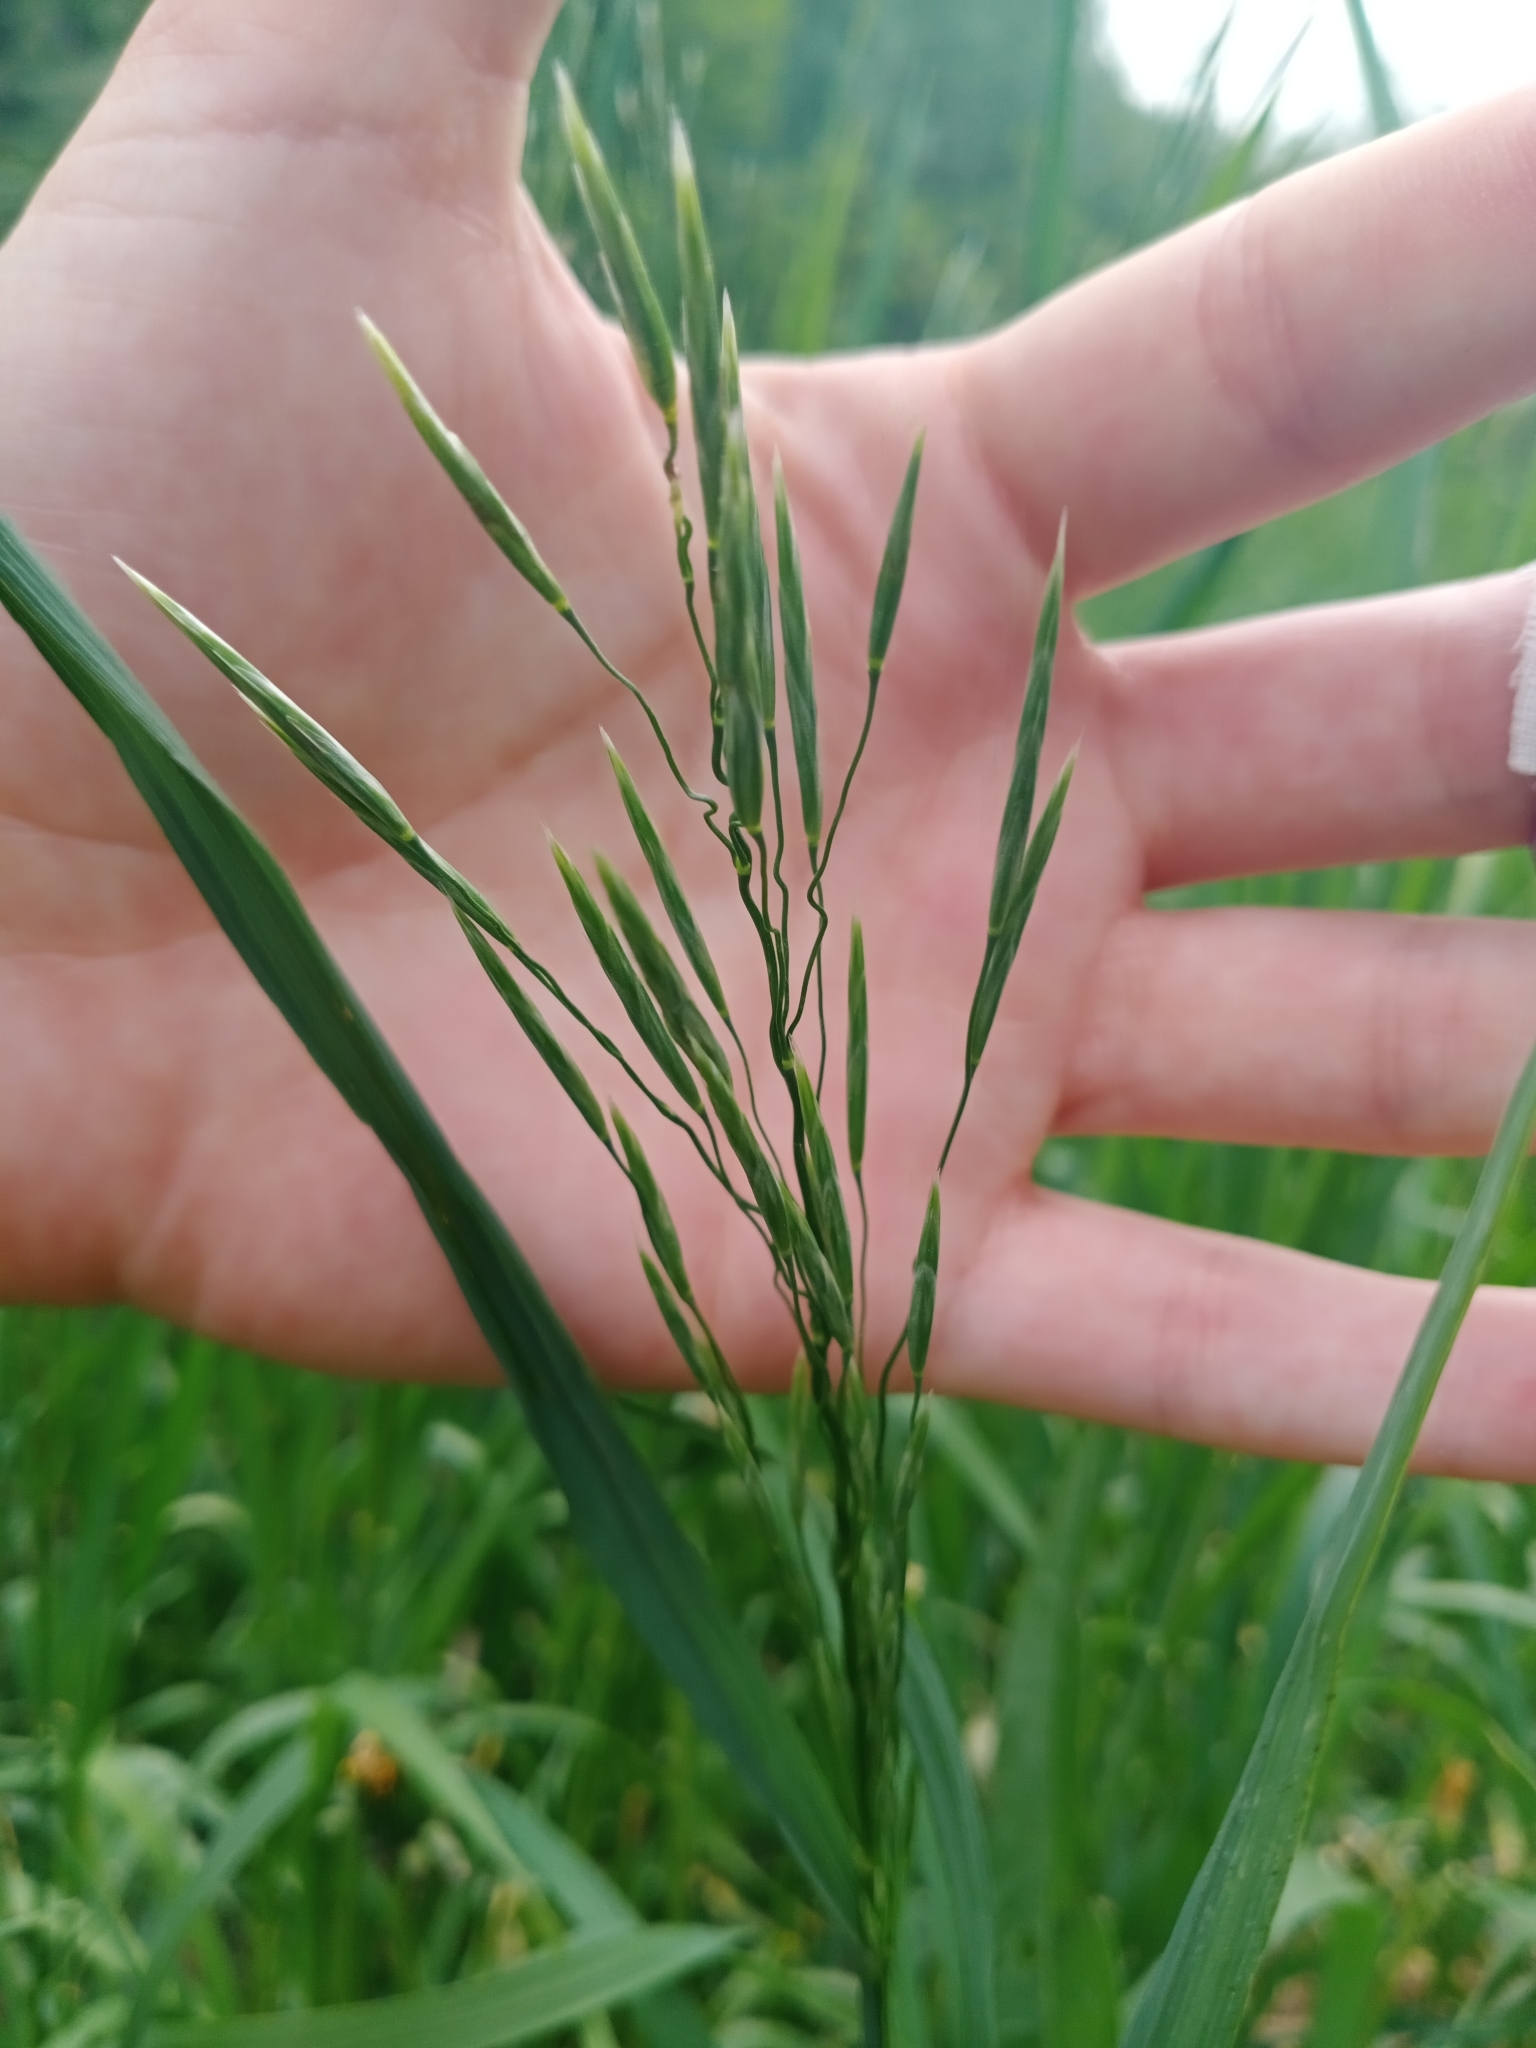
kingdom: Plantae
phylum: Tracheophyta
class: Liliopsida
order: Poales
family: Poaceae
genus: Bromus
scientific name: Bromus inermis
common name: Smooth brome
